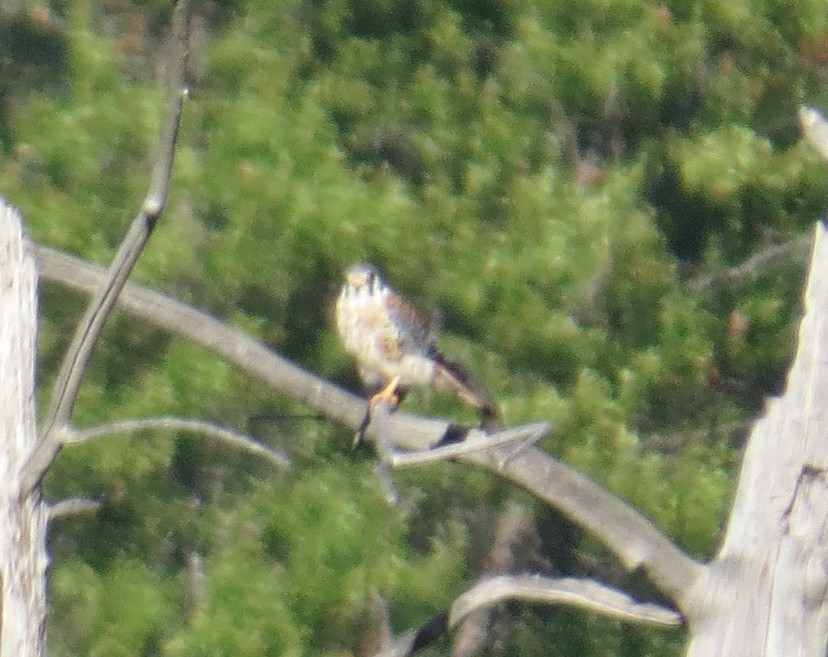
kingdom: Animalia
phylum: Chordata
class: Aves
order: Falconiformes
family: Falconidae
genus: Falco
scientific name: Falco sparverius
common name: American kestrel
